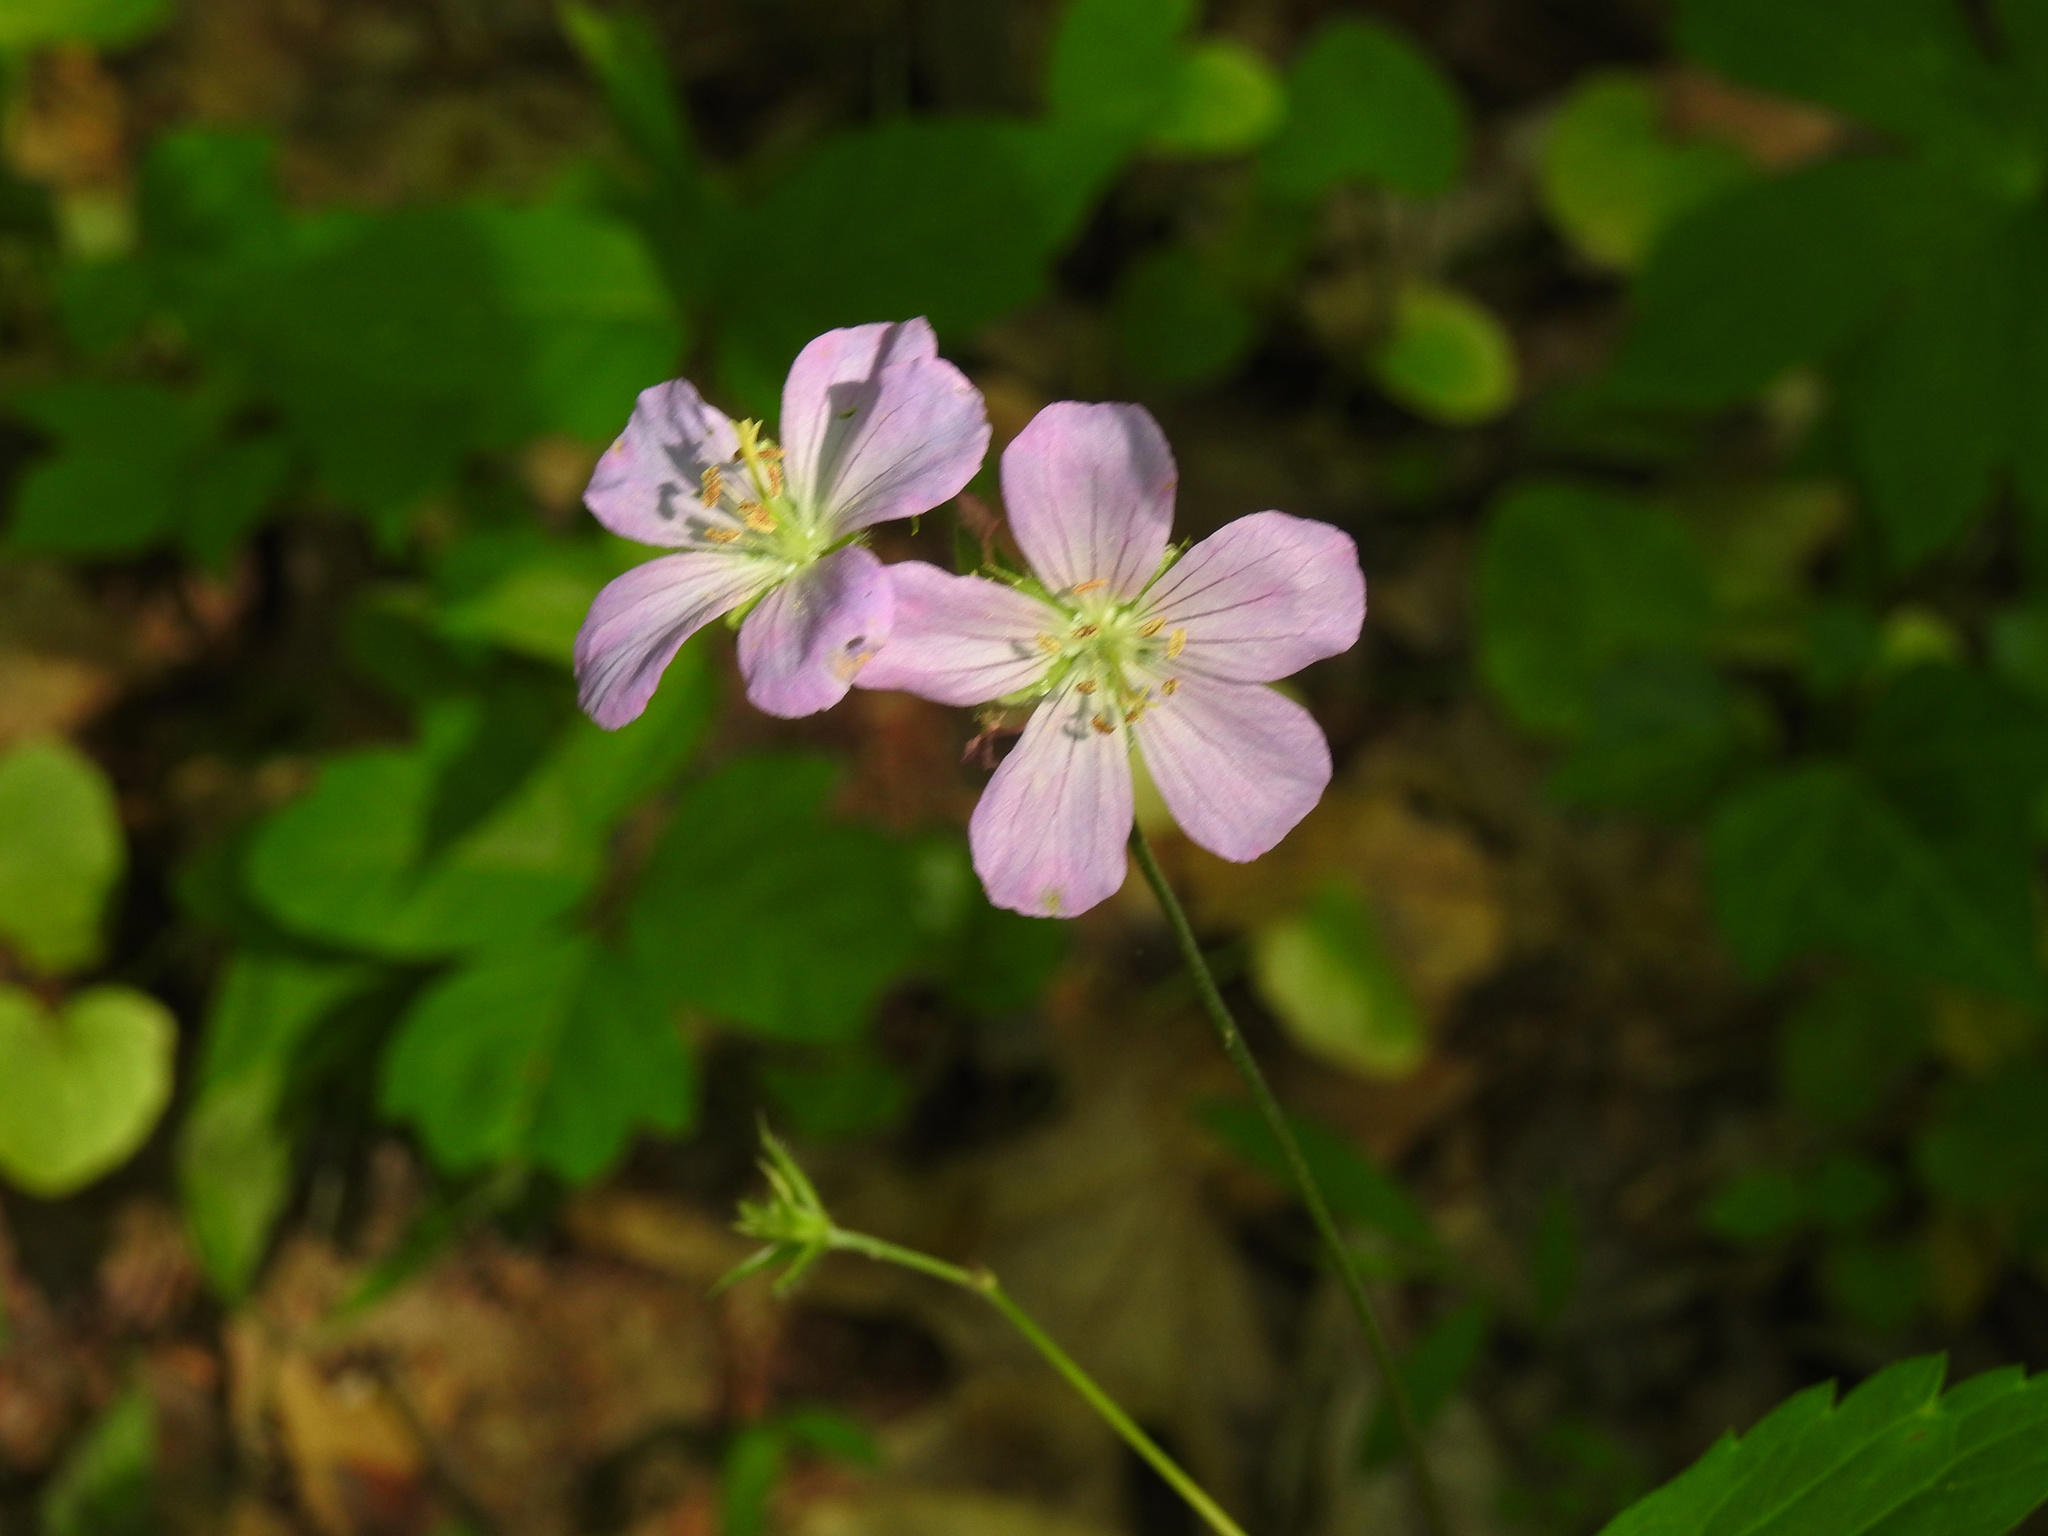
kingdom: Plantae
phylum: Tracheophyta
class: Magnoliopsida
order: Geraniales
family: Geraniaceae
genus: Geranium
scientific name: Geranium maculatum
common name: Spotted geranium
